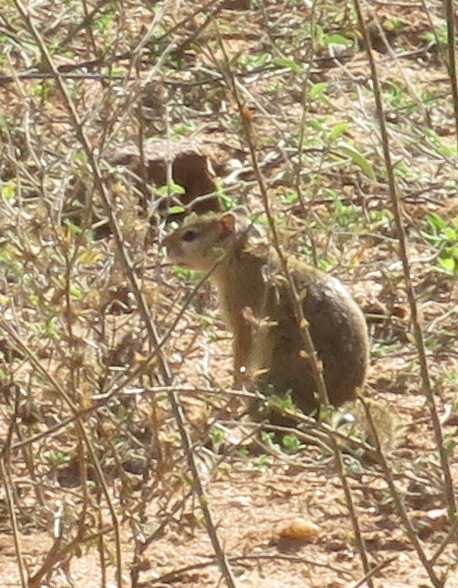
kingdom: Animalia
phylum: Chordata
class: Mammalia
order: Rodentia
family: Sciuridae
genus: Paraxerus
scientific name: Paraxerus cepapi
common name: Smith's bush squirrel
